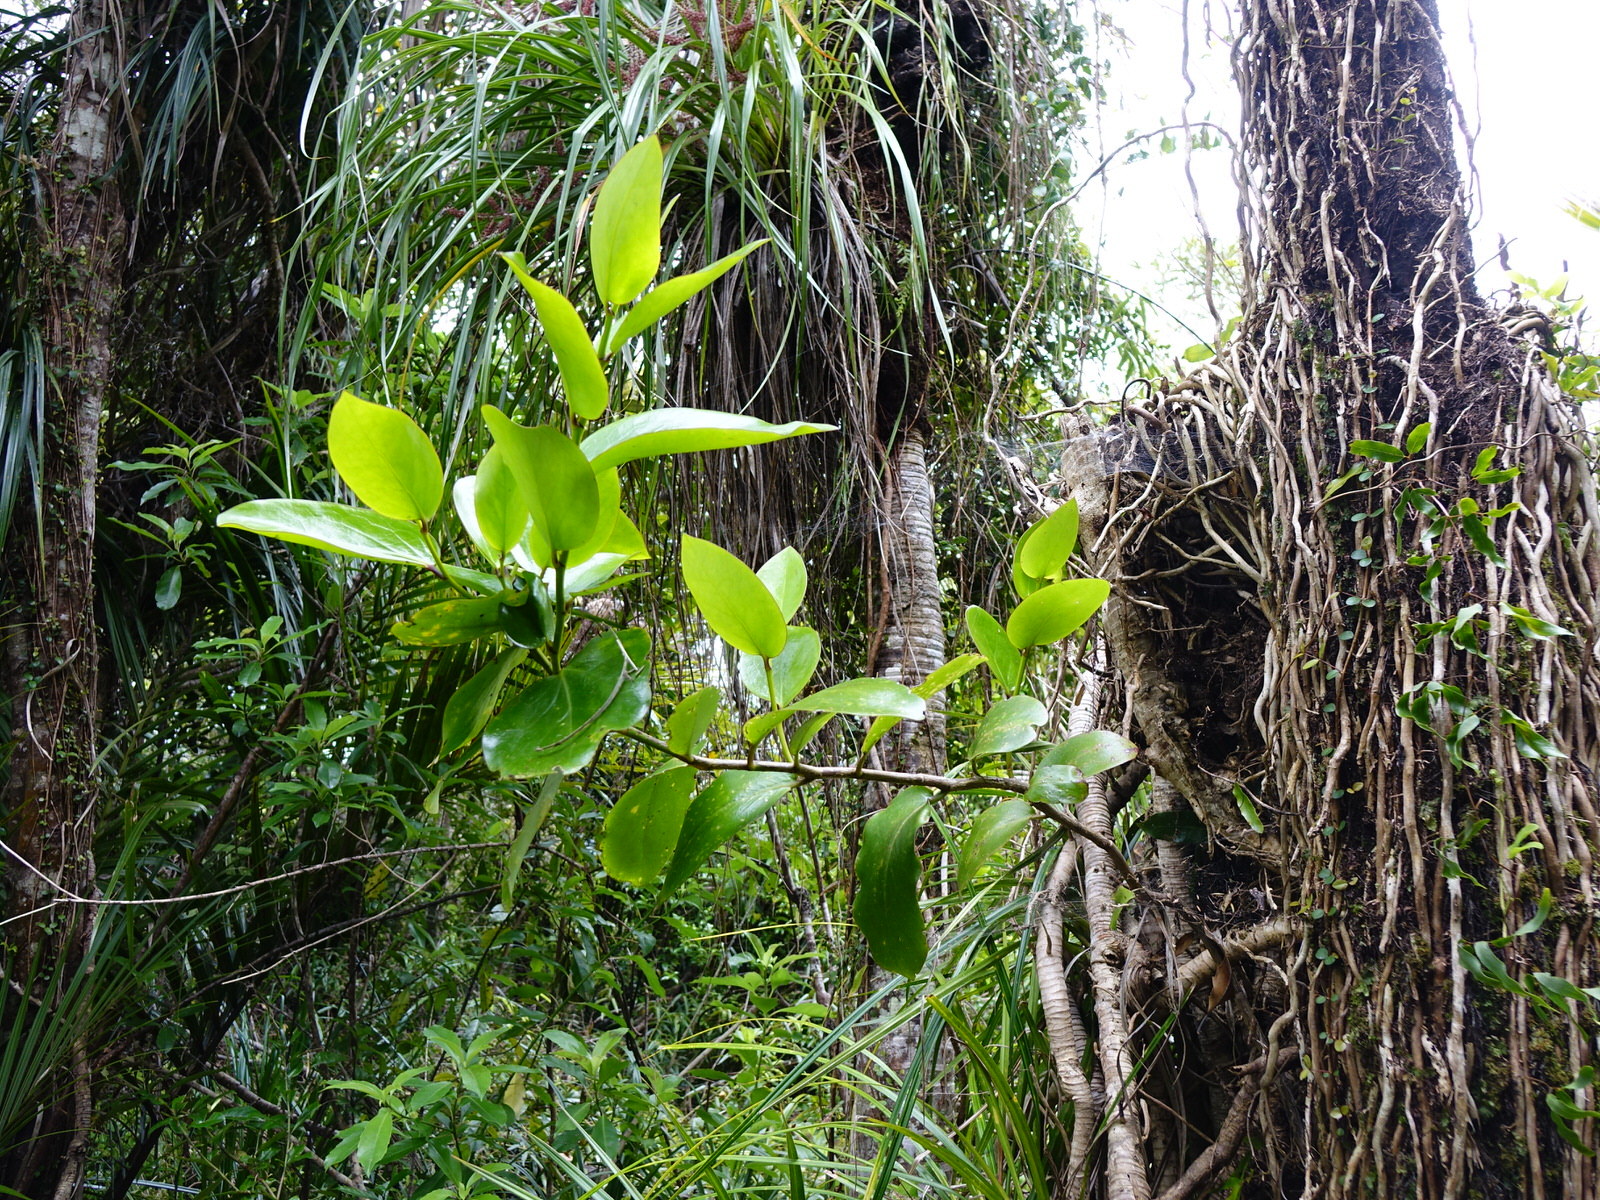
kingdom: Plantae
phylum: Tracheophyta
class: Magnoliopsida
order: Apiales
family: Griseliniaceae
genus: Griselinia
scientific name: Griselinia lucida
